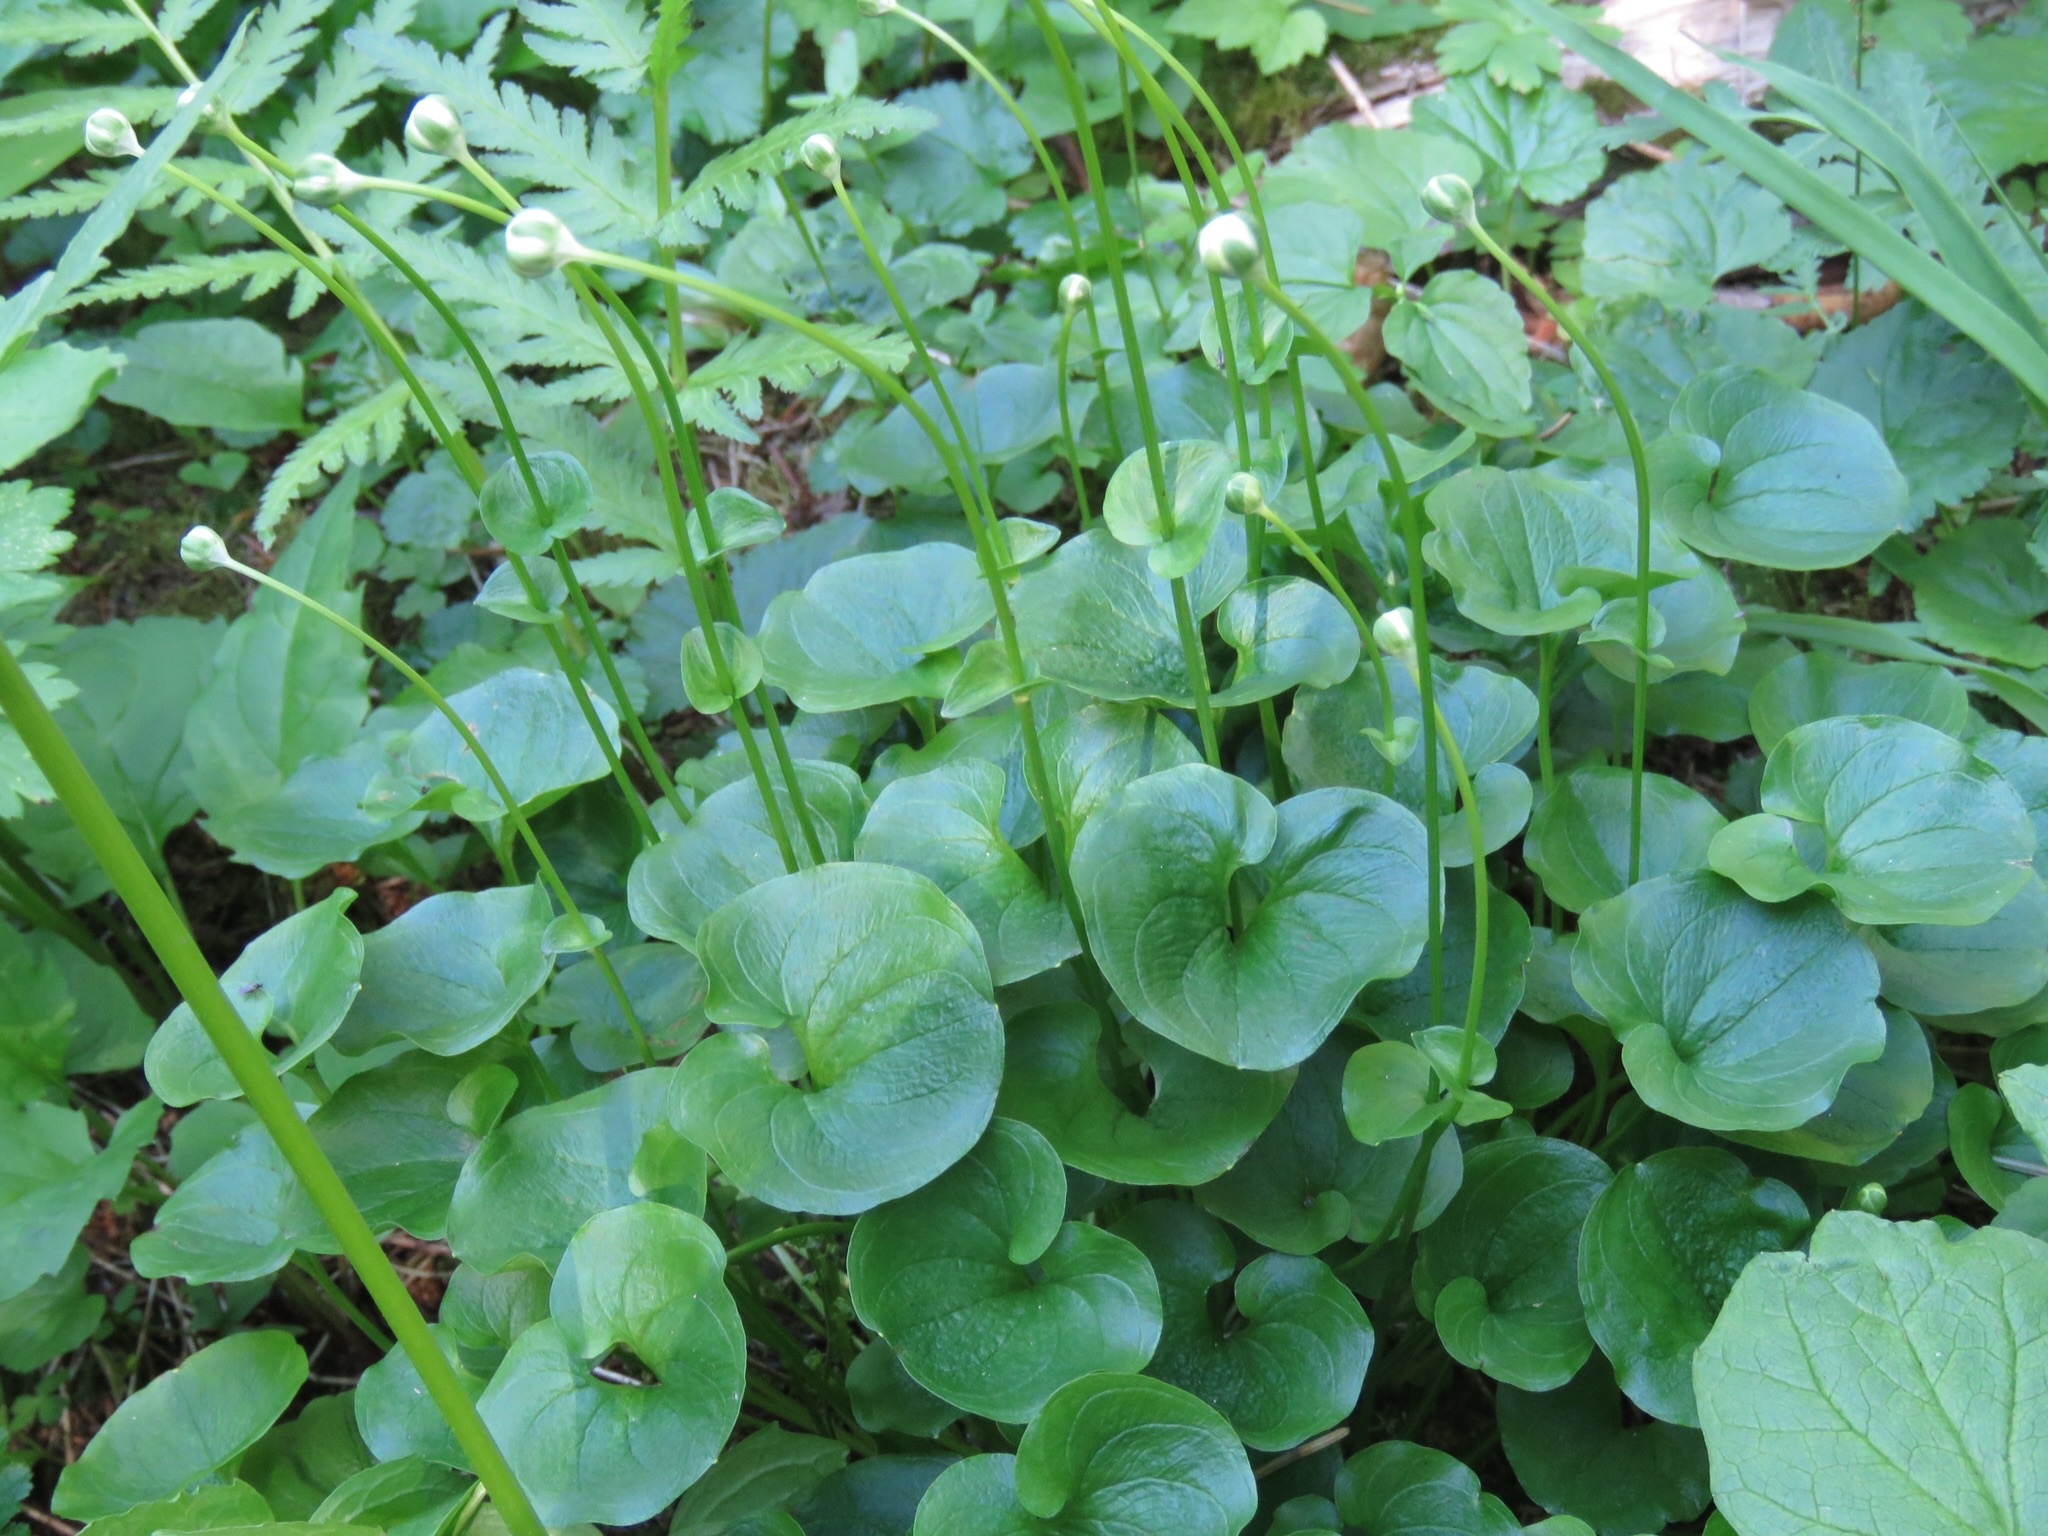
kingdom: Plantae
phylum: Tracheophyta
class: Magnoliopsida
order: Celastrales
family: Parnassiaceae
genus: Parnassia
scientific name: Parnassia fimbriata
